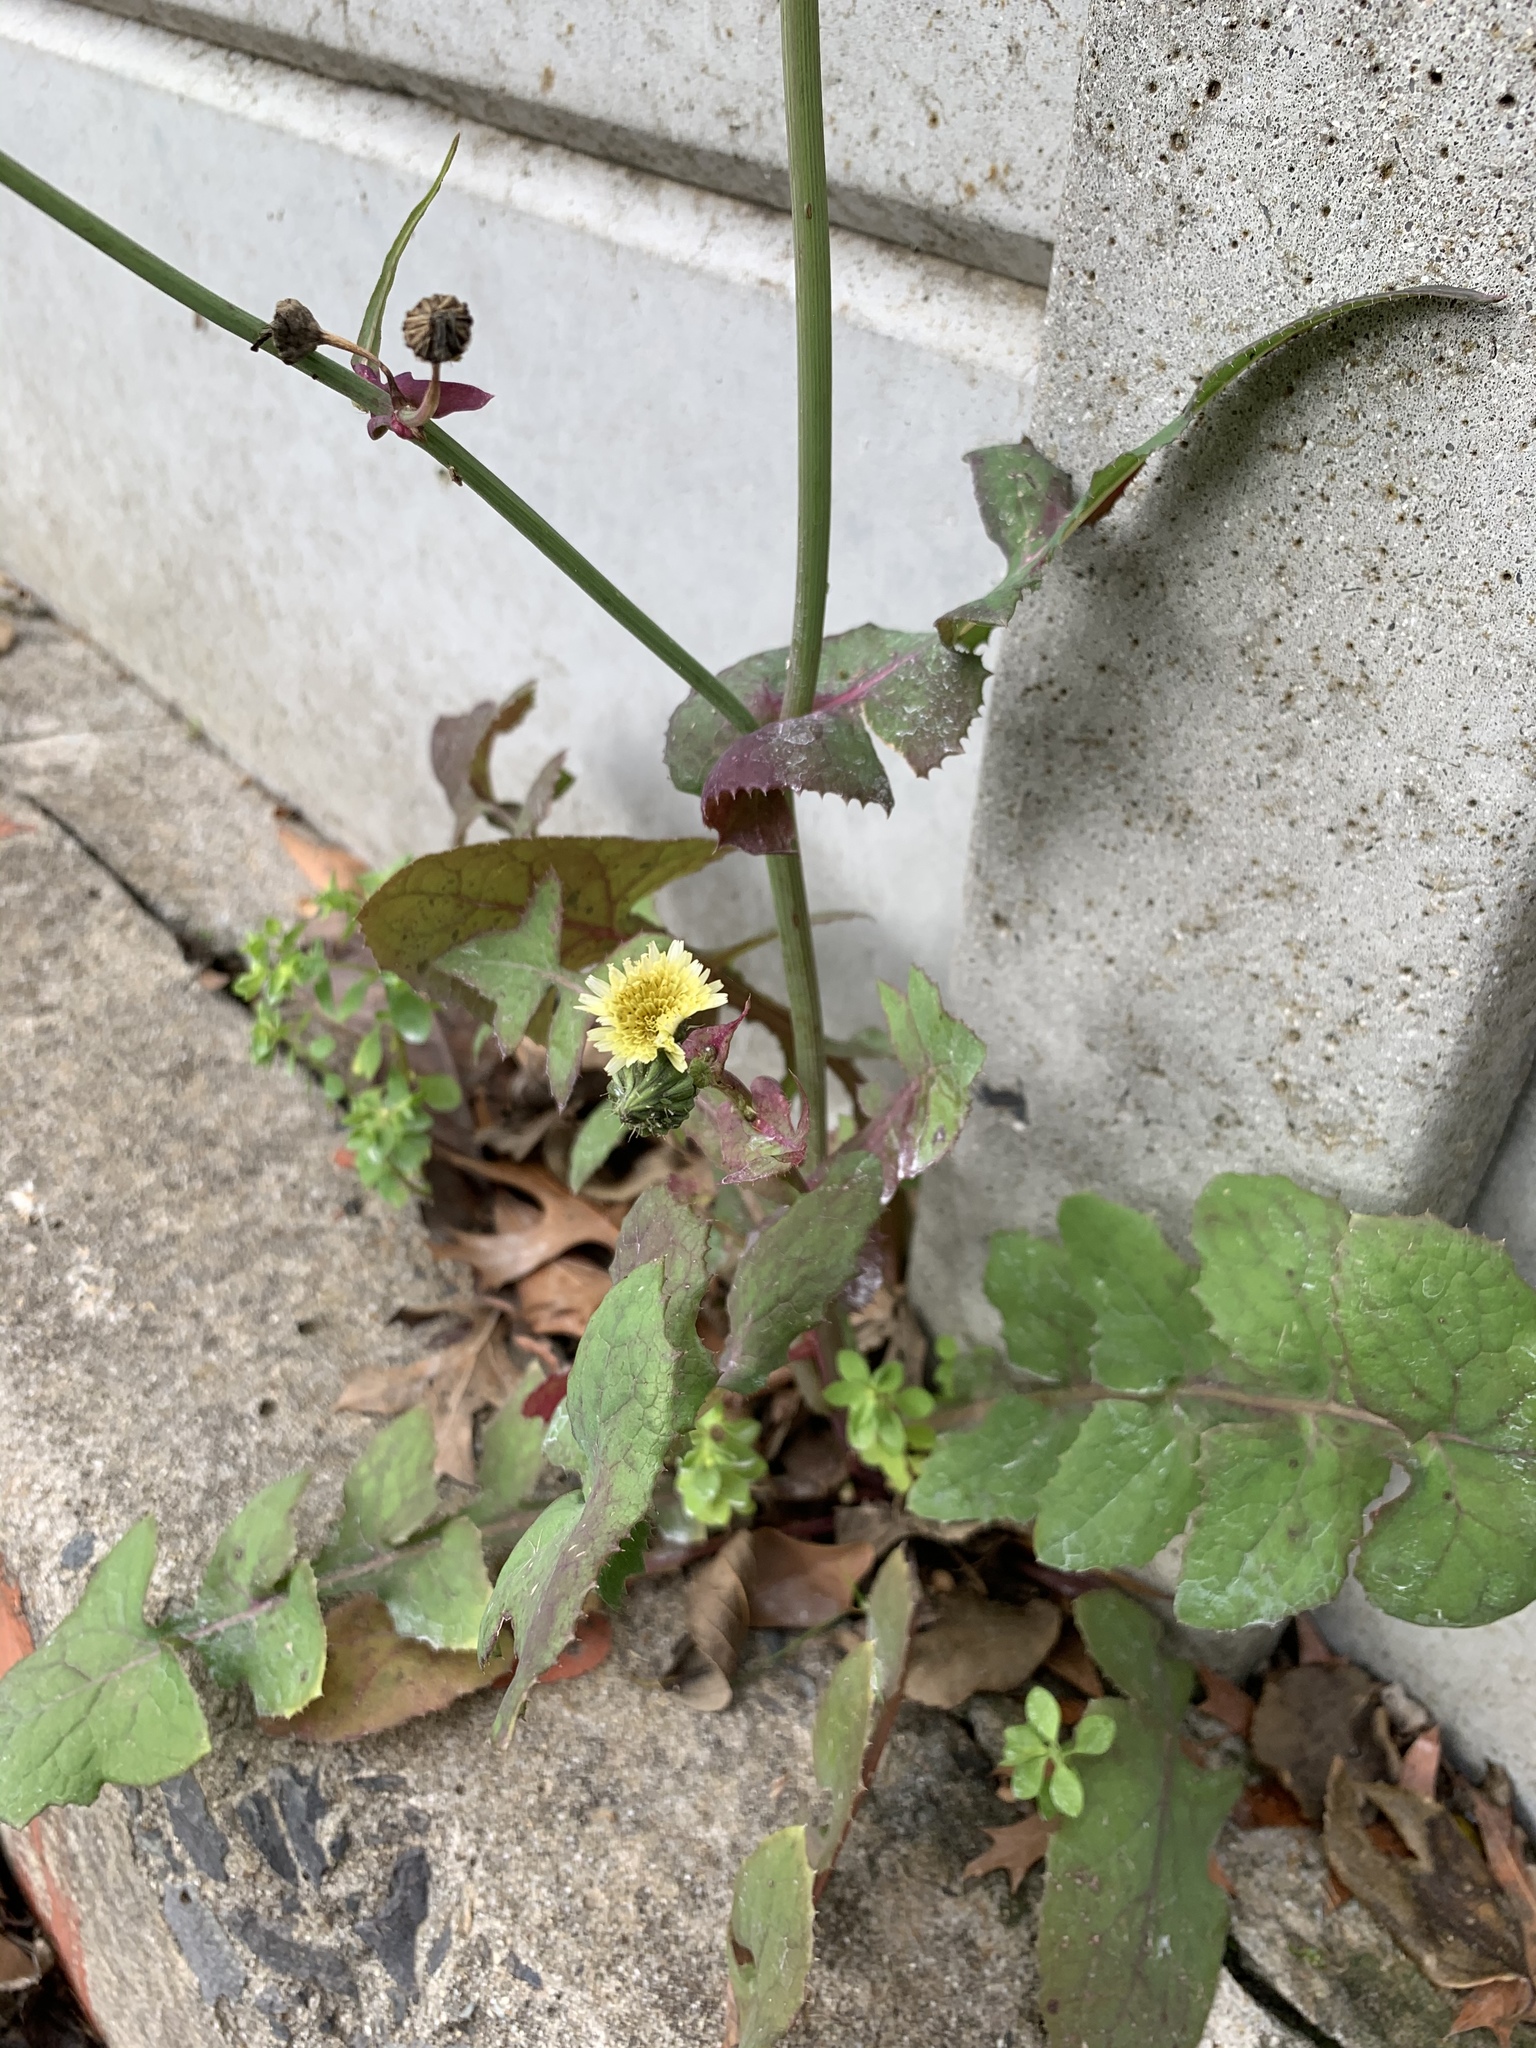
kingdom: Plantae
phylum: Tracheophyta
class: Magnoliopsida
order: Asterales
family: Asteraceae
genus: Sonchus
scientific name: Sonchus oleraceus
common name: Common sowthistle
